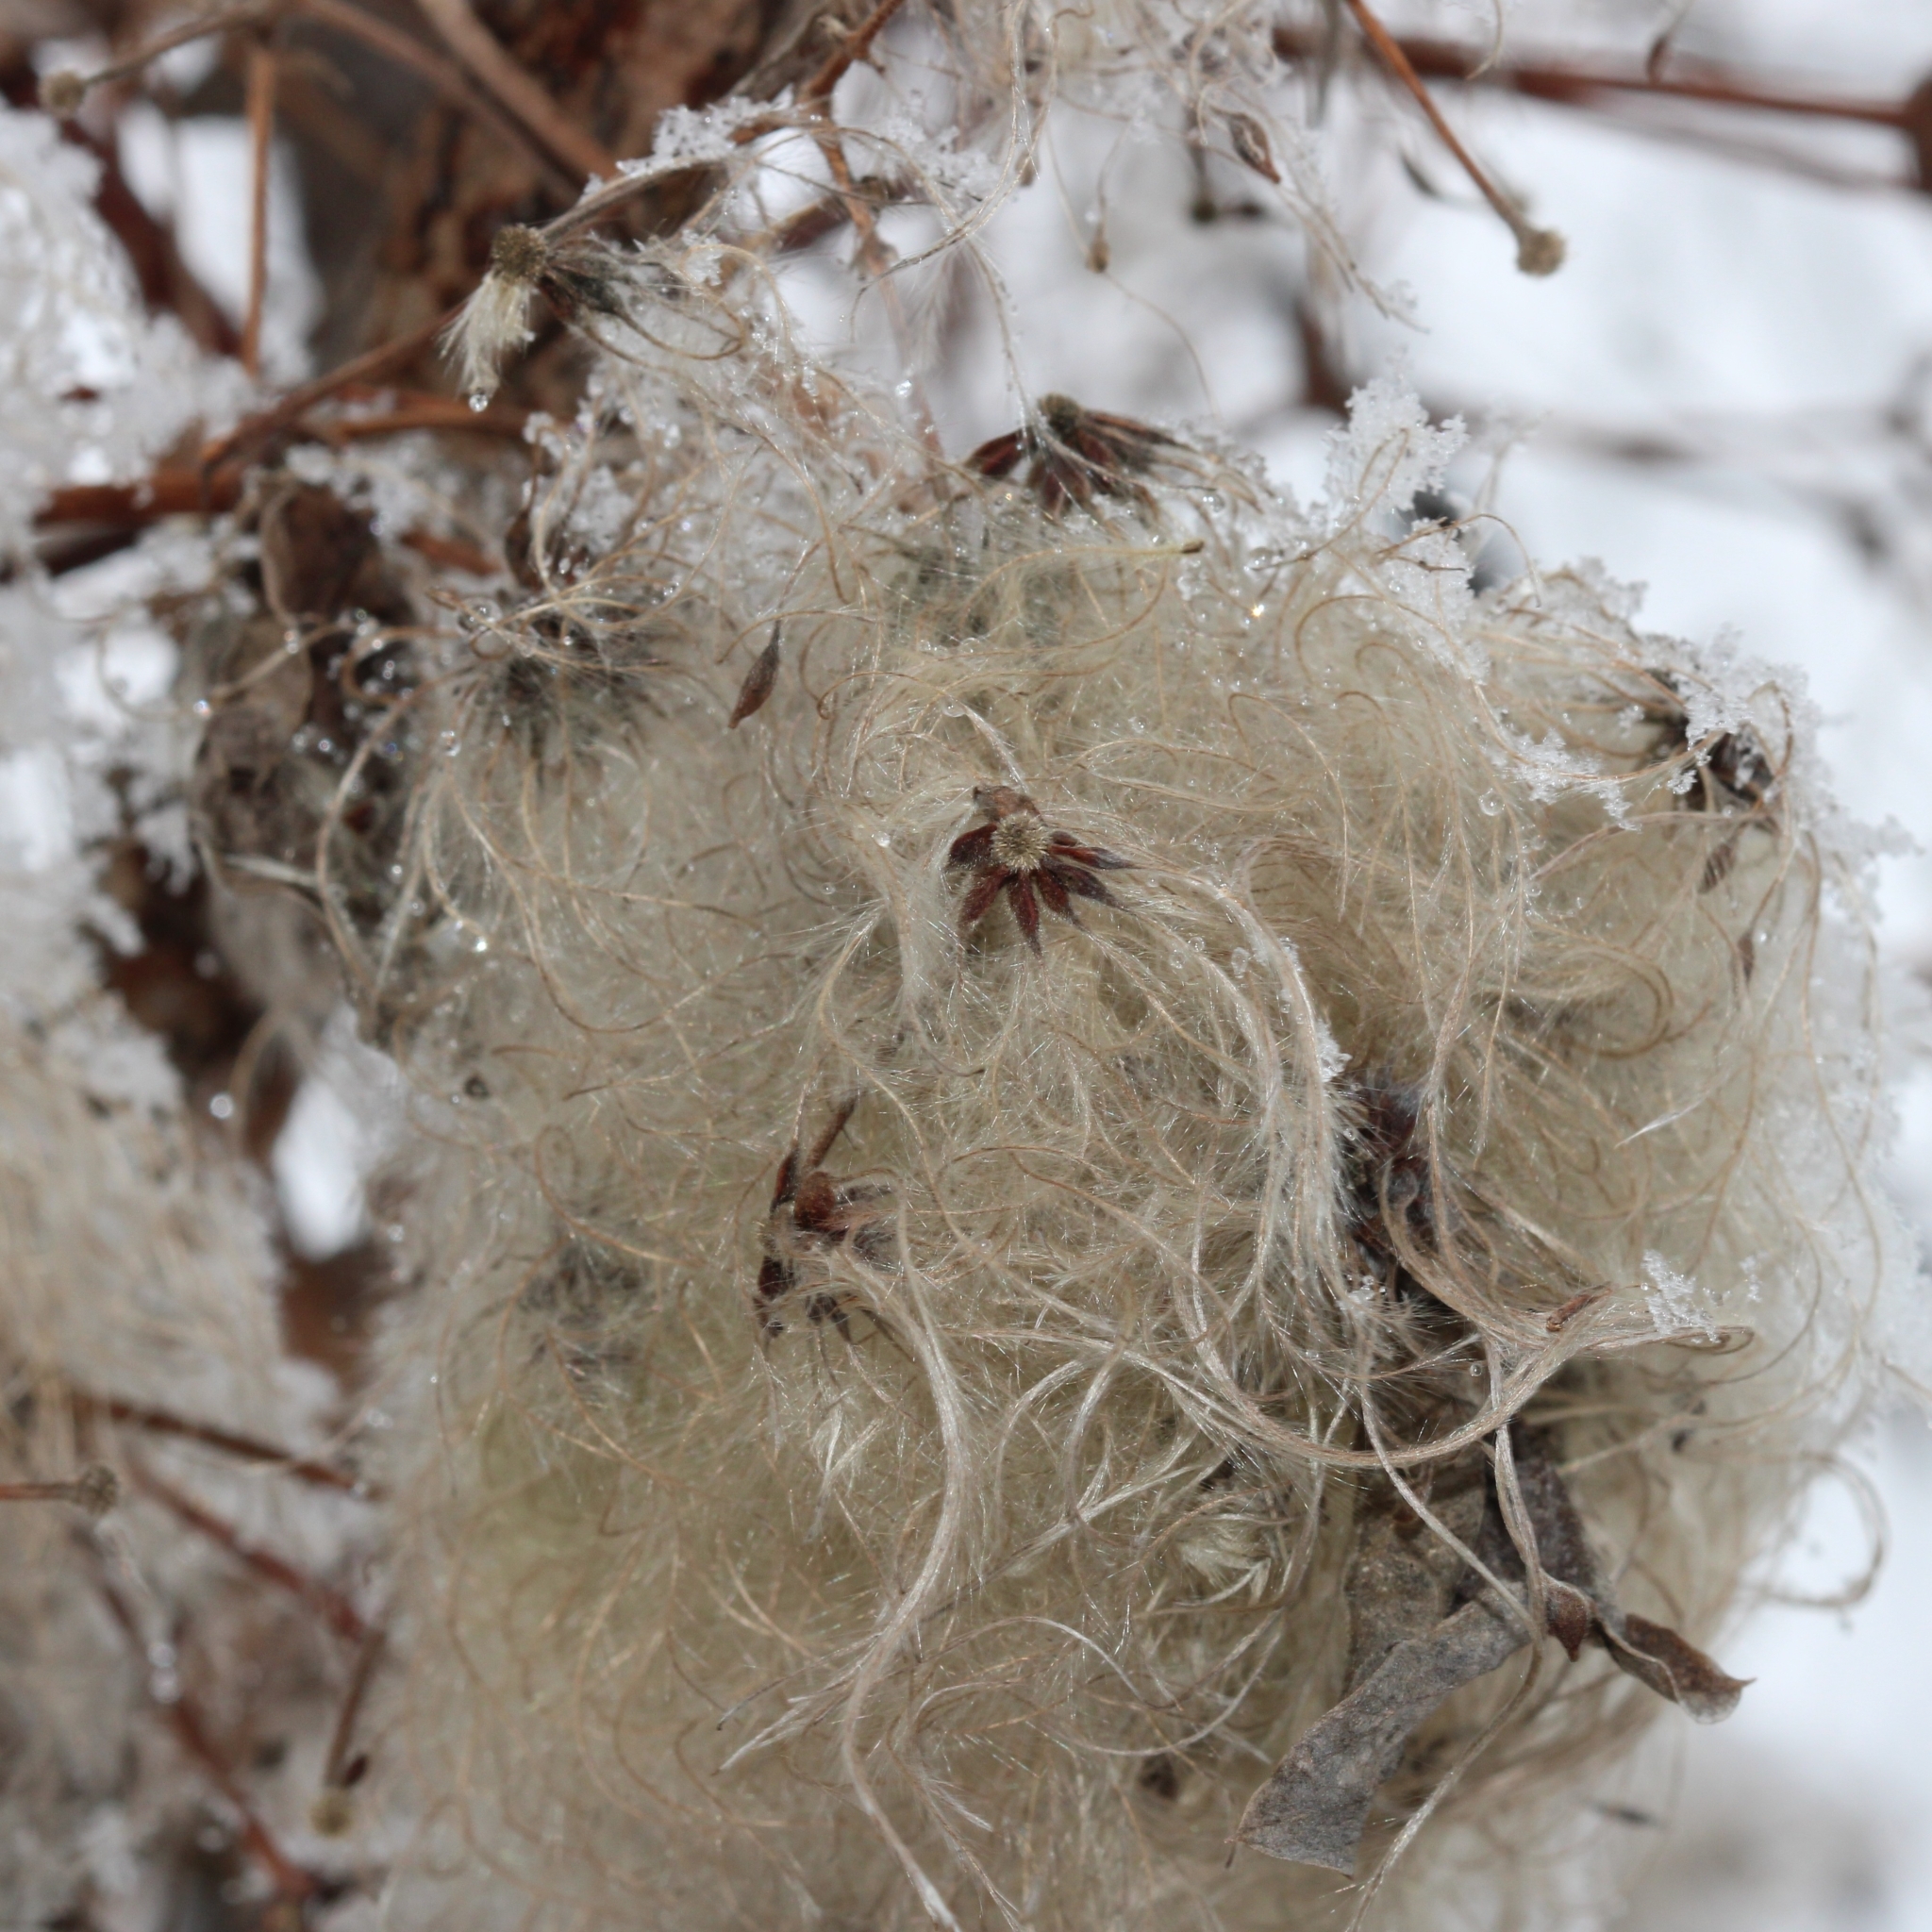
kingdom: Plantae
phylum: Tracheophyta
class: Magnoliopsida
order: Ranunculales
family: Ranunculaceae
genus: Clematis
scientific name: Clematis virginiana
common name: Virgin's-bower
